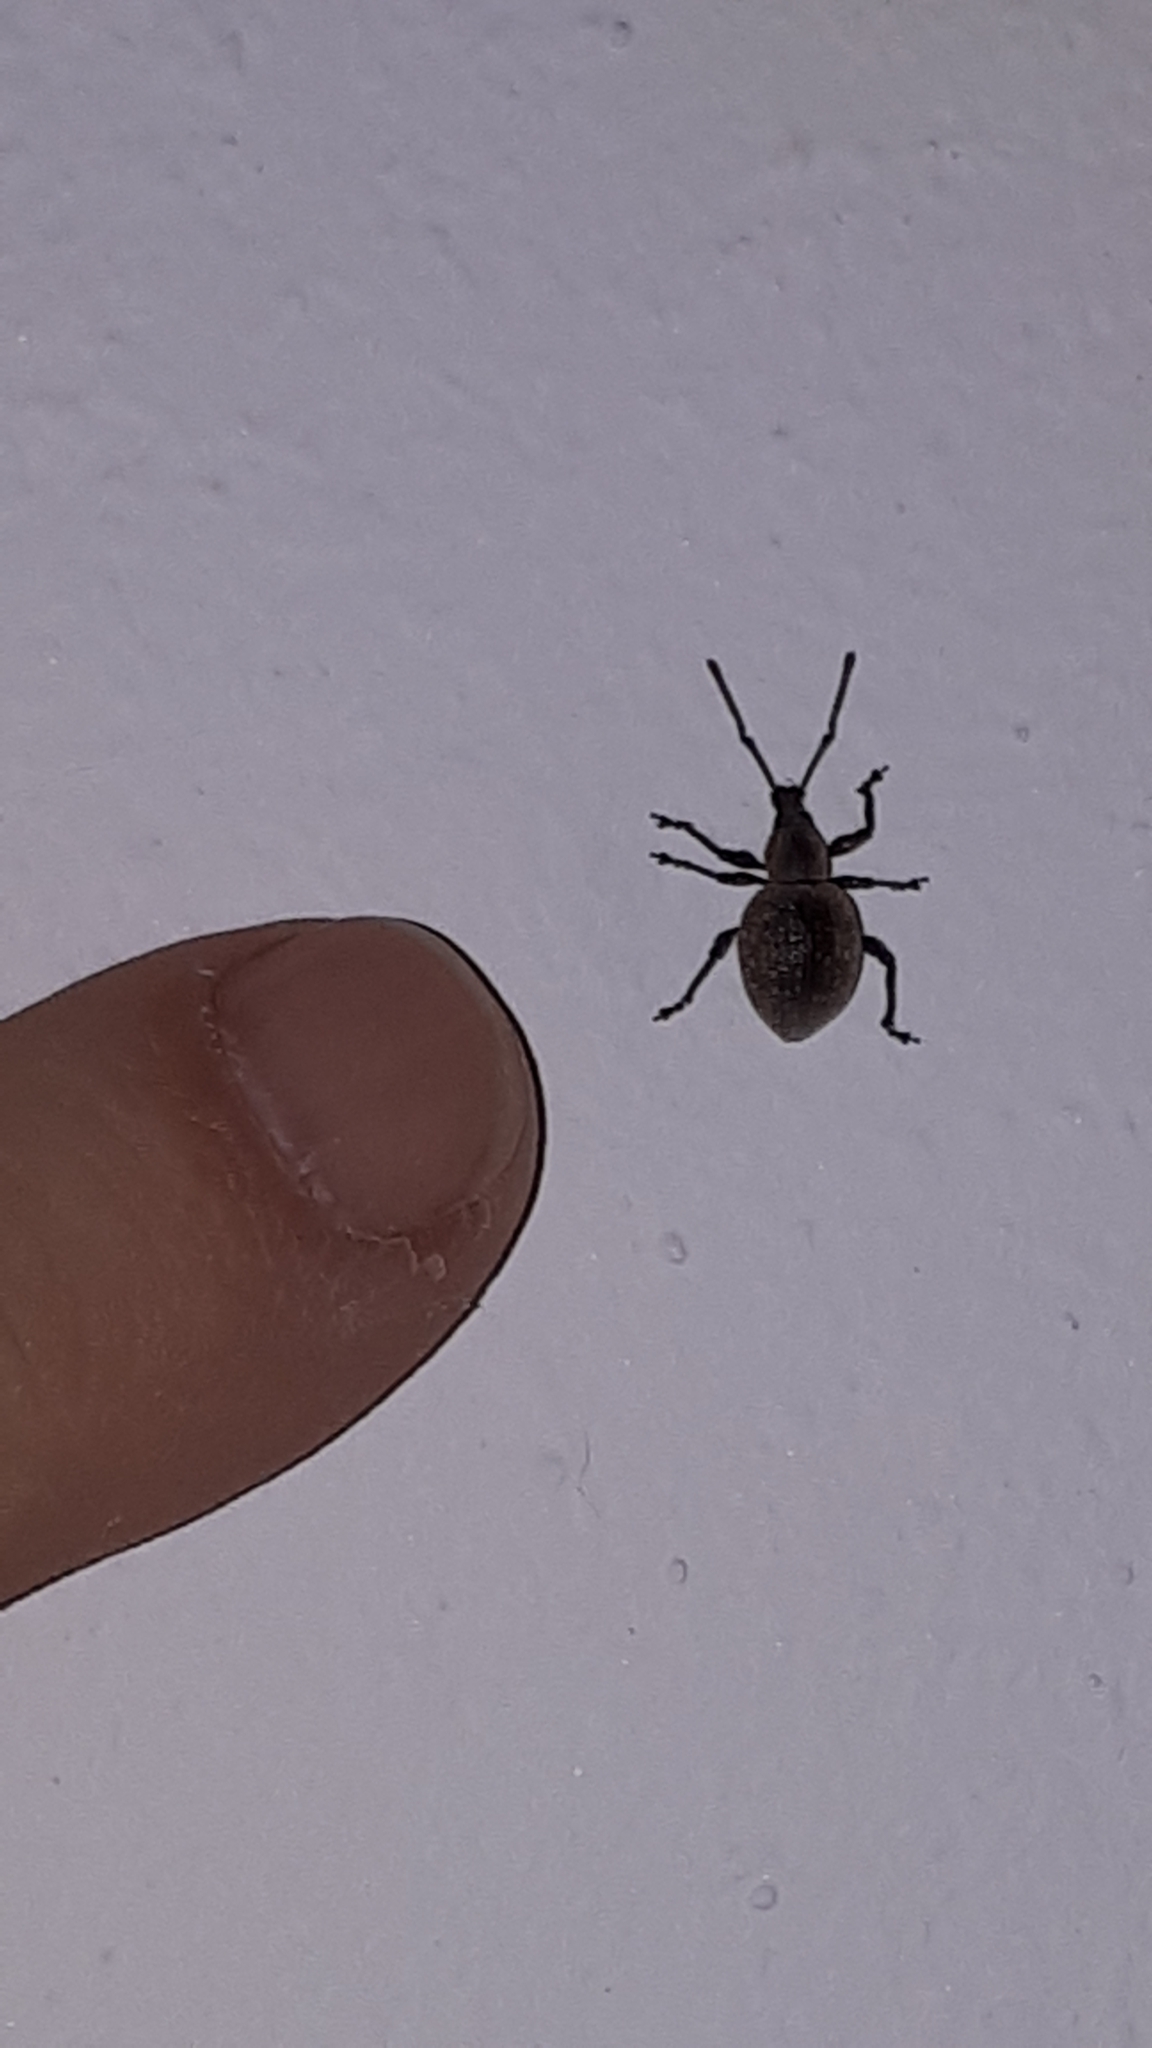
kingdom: Animalia
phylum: Arthropoda
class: Insecta
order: Coleoptera
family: Curculionidae
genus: Otiorhynchus
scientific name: Otiorhynchus armadillo
